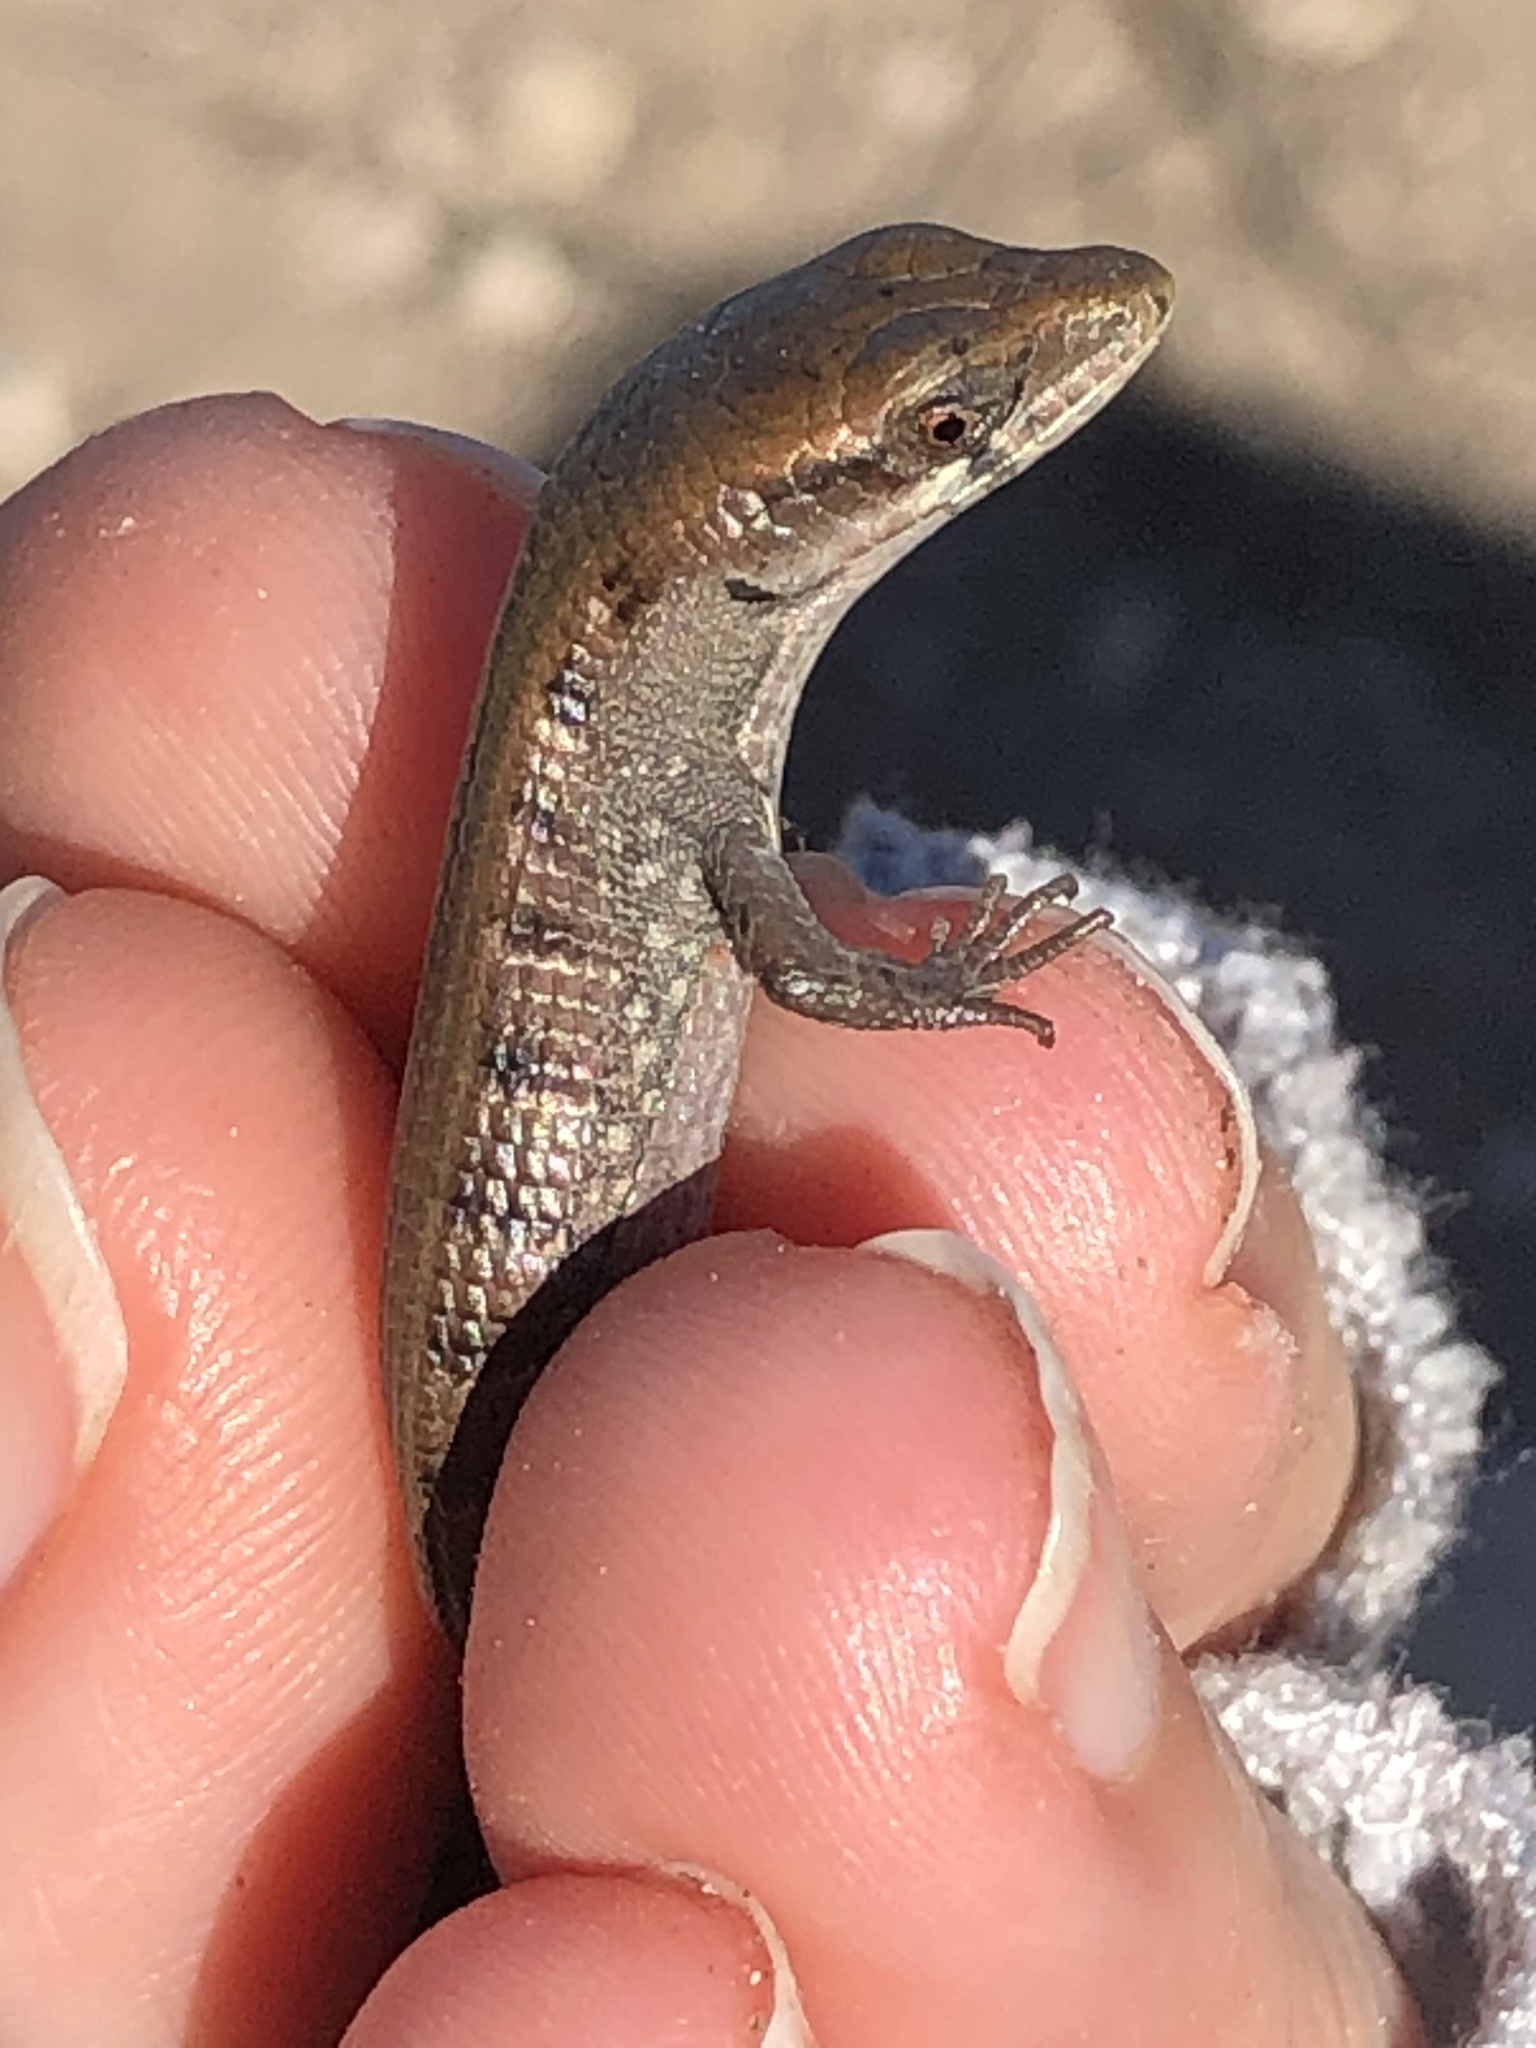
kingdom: Animalia
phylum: Chordata
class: Squamata
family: Anguidae
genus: Elgaria
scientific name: Elgaria multicarinata
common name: Southern alligator lizard
